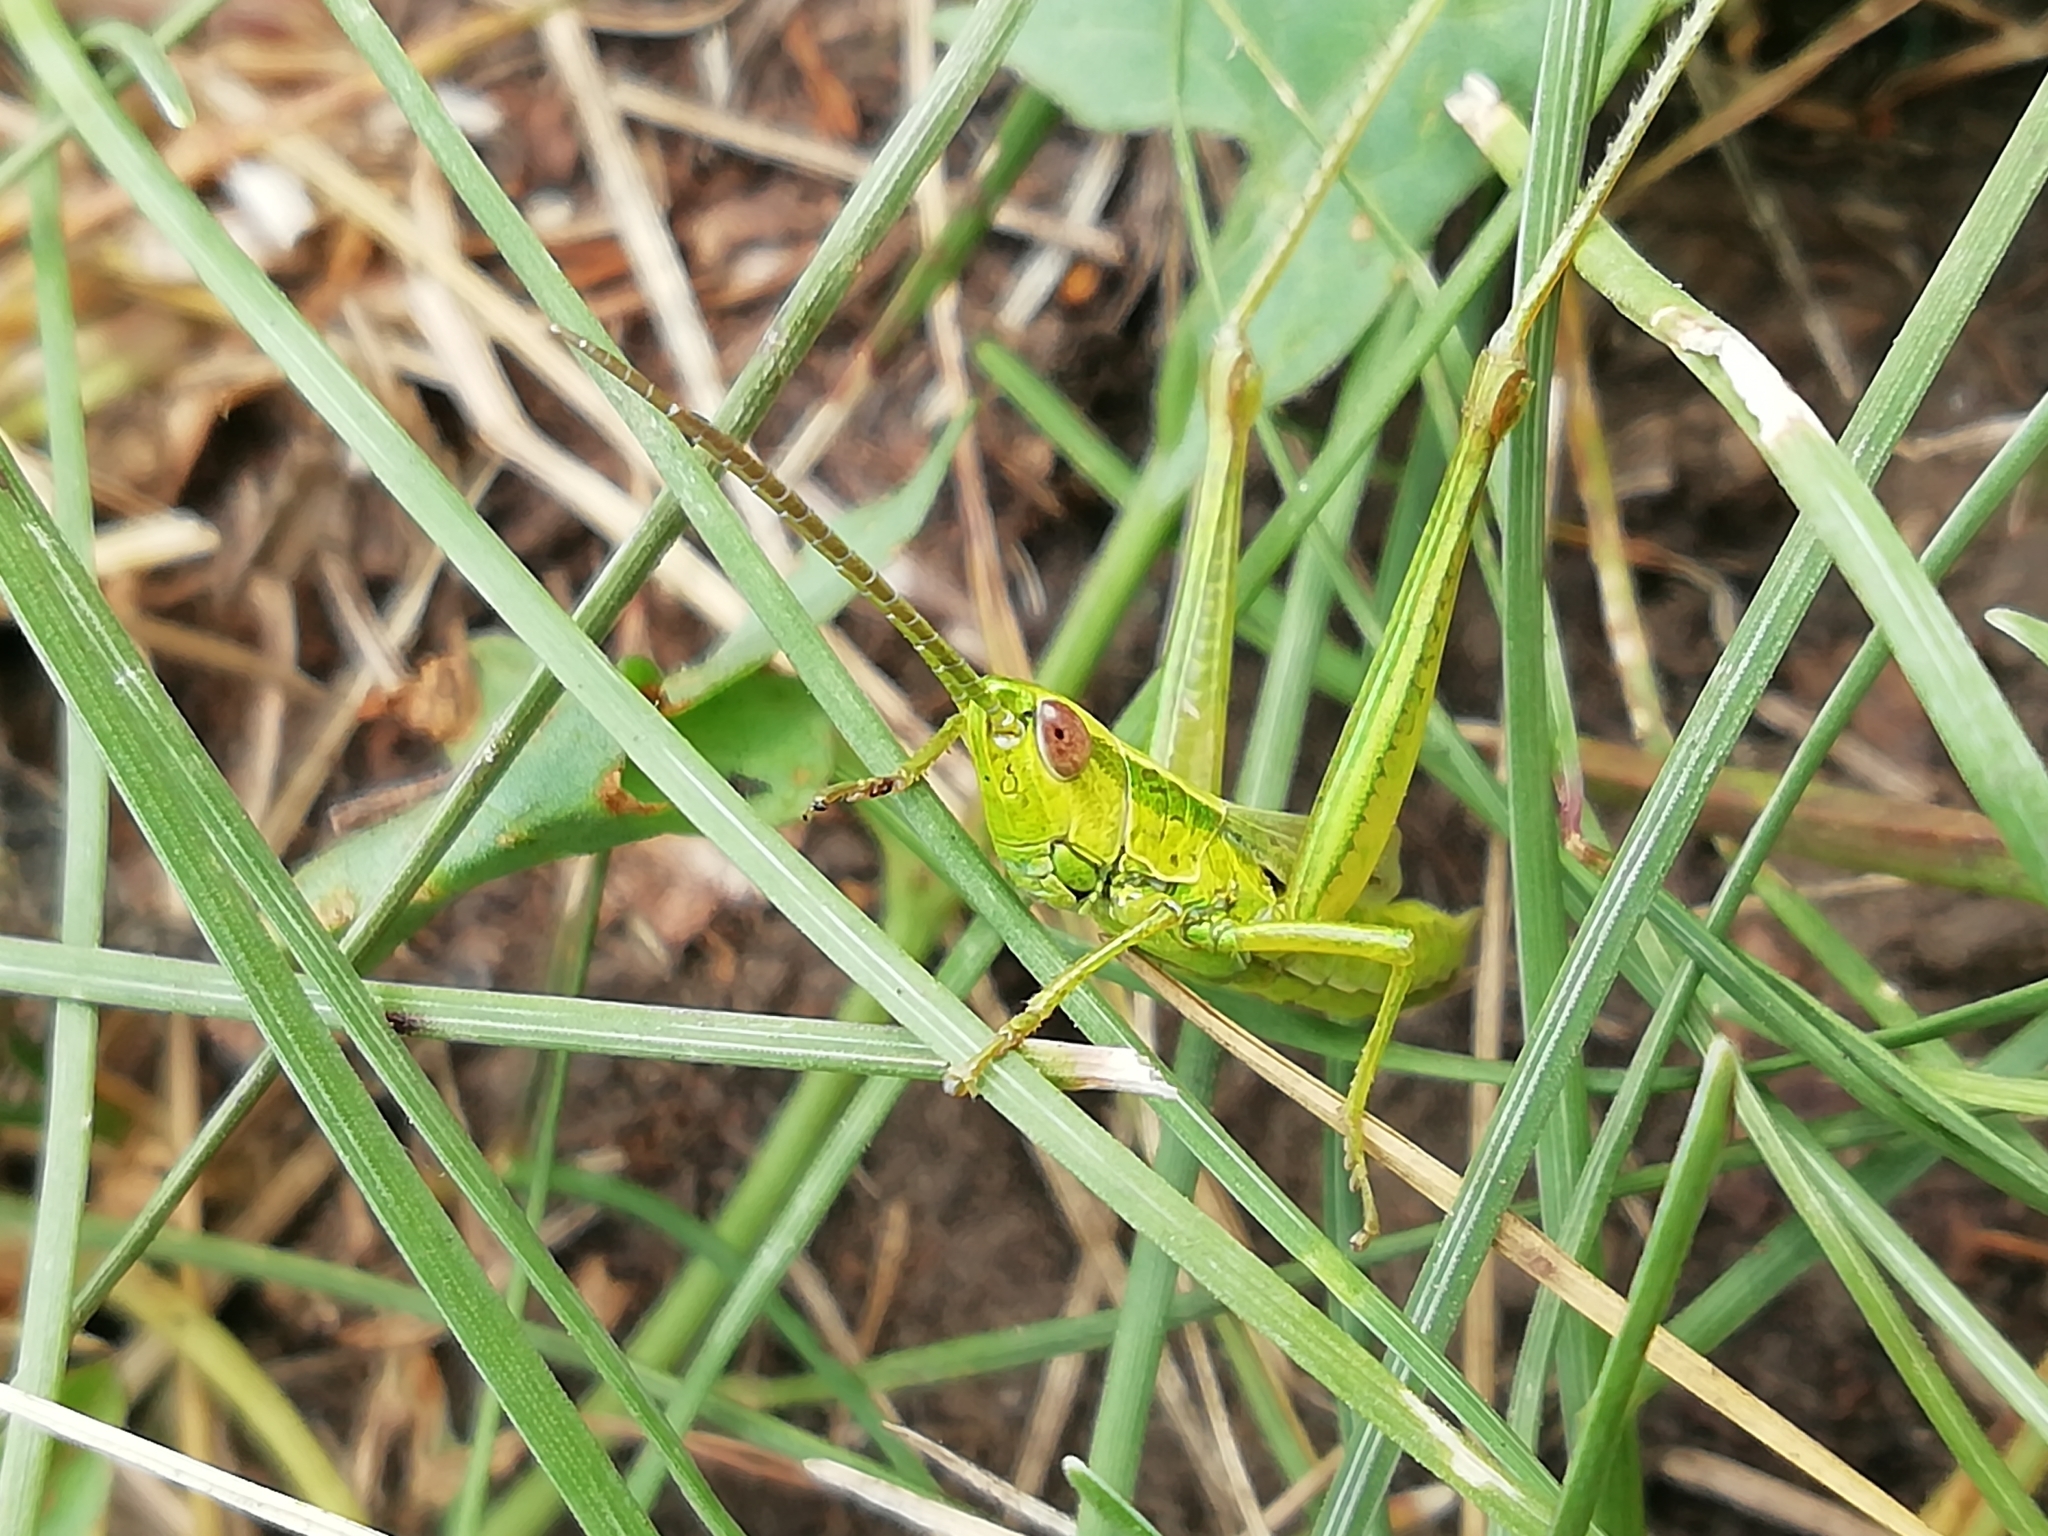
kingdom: Animalia
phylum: Arthropoda
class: Insecta
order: Orthoptera
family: Acrididae
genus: Euthystira
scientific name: Euthystira brachyptera
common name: Small gold grasshopper
